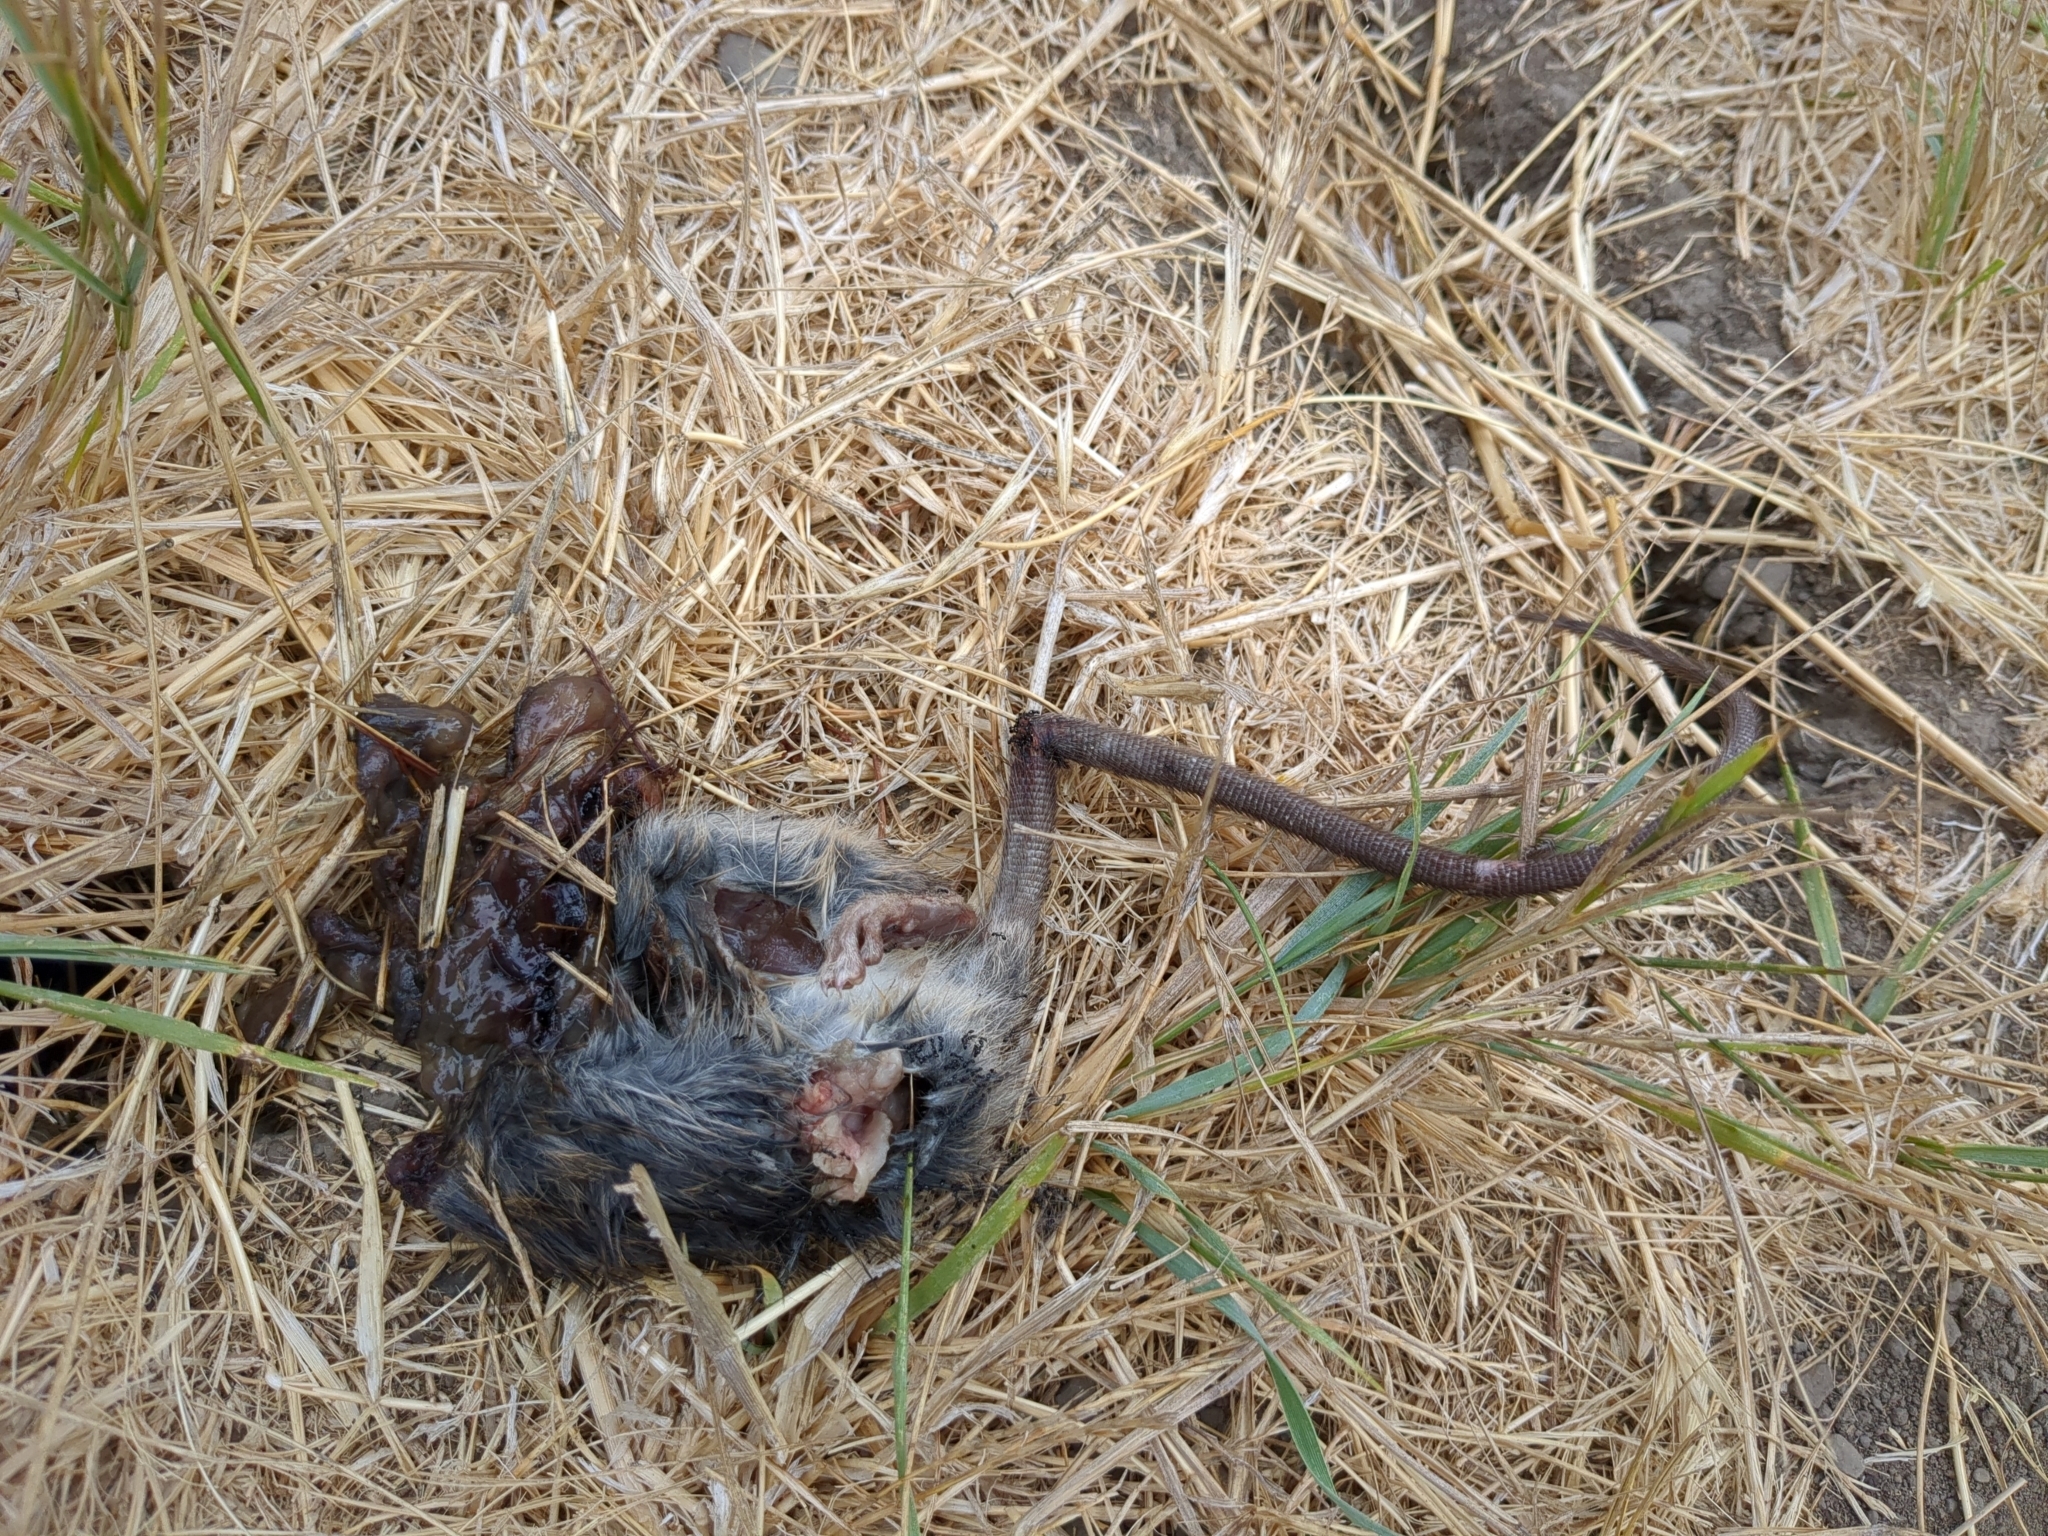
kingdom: Animalia
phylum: Chordata
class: Mammalia
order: Rodentia
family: Muridae
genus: Rattus
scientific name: Rattus rattus
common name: Black rat
